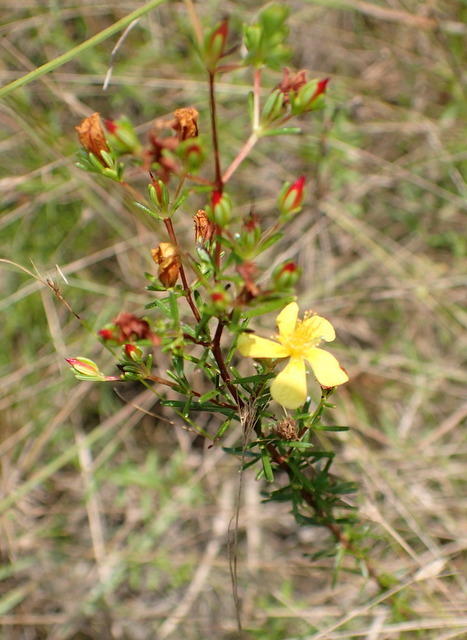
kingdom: Plantae
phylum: Tracheophyta
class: Magnoliopsida
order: Malpighiales
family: Hypericaceae
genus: Hypericum
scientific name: Hypericum brachyphyllum
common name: Coastal plain st. john's-wort
